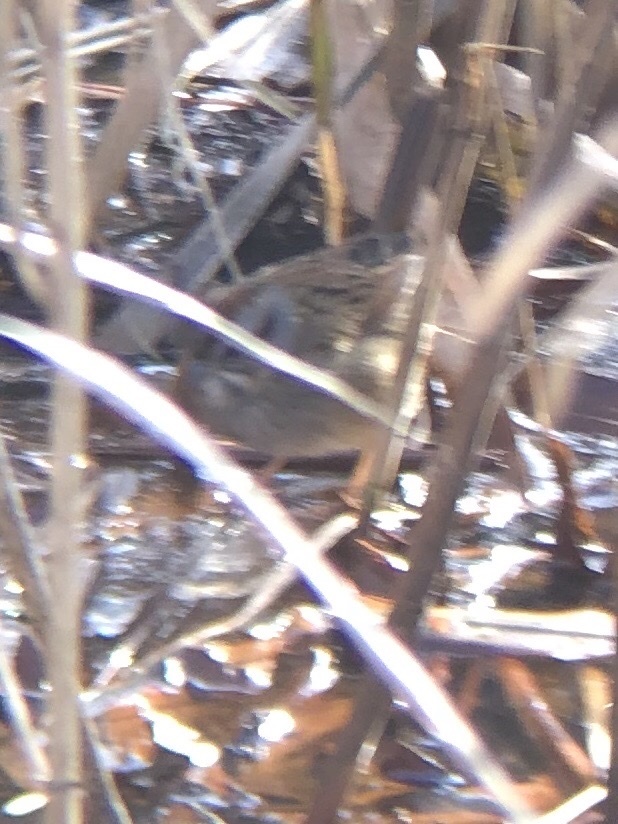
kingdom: Animalia
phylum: Chordata
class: Aves
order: Passeriformes
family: Passerellidae
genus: Melospiza
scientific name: Melospiza georgiana
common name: Swamp sparrow
